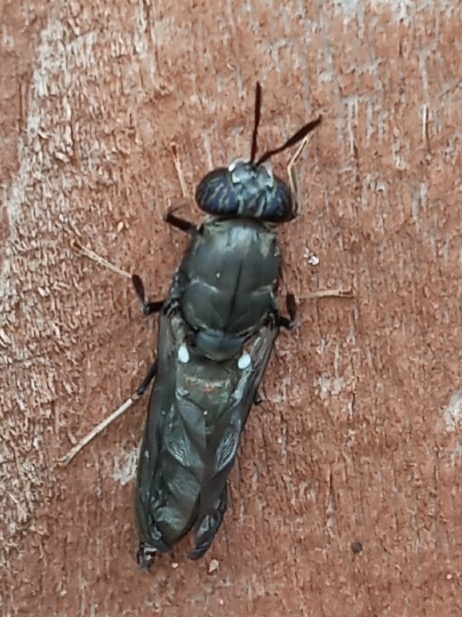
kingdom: Animalia
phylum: Arthropoda
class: Insecta
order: Diptera
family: Stratiomyidae
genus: Hermetia
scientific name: Hermetia illucens
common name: Black soldier fly
